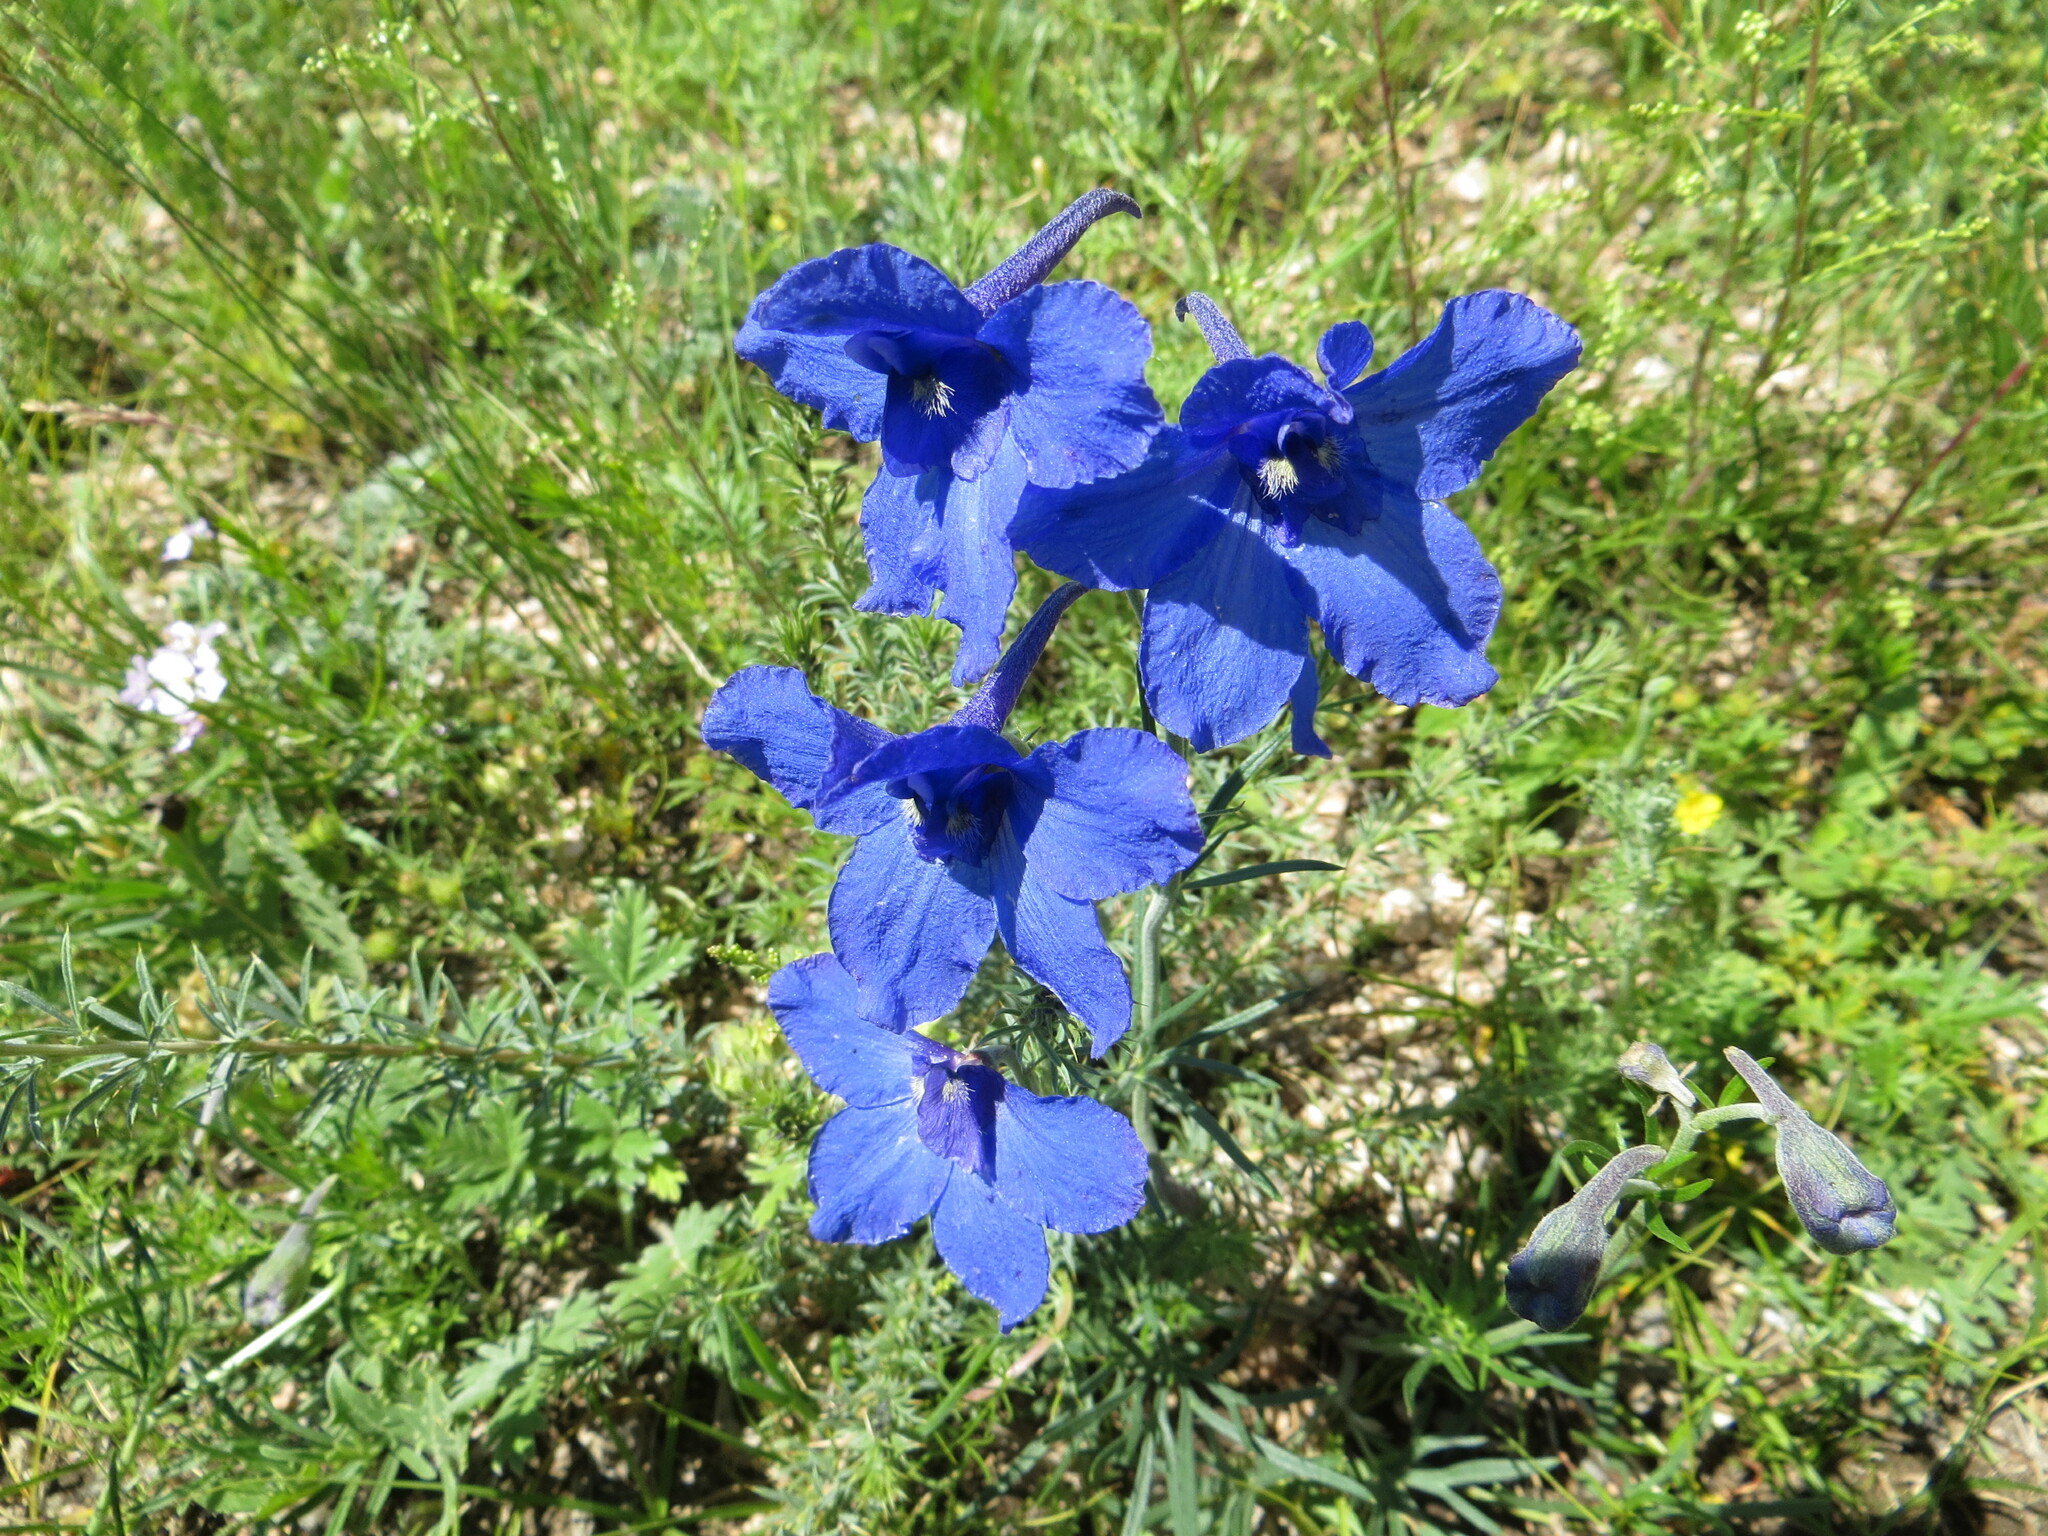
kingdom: Plantae
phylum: Tracheophyta
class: Magnoliopsida
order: Ranunculales
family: Ranunculaceae
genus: Delphinium
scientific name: Delphinium grandiflorum
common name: Siberian larkspur
